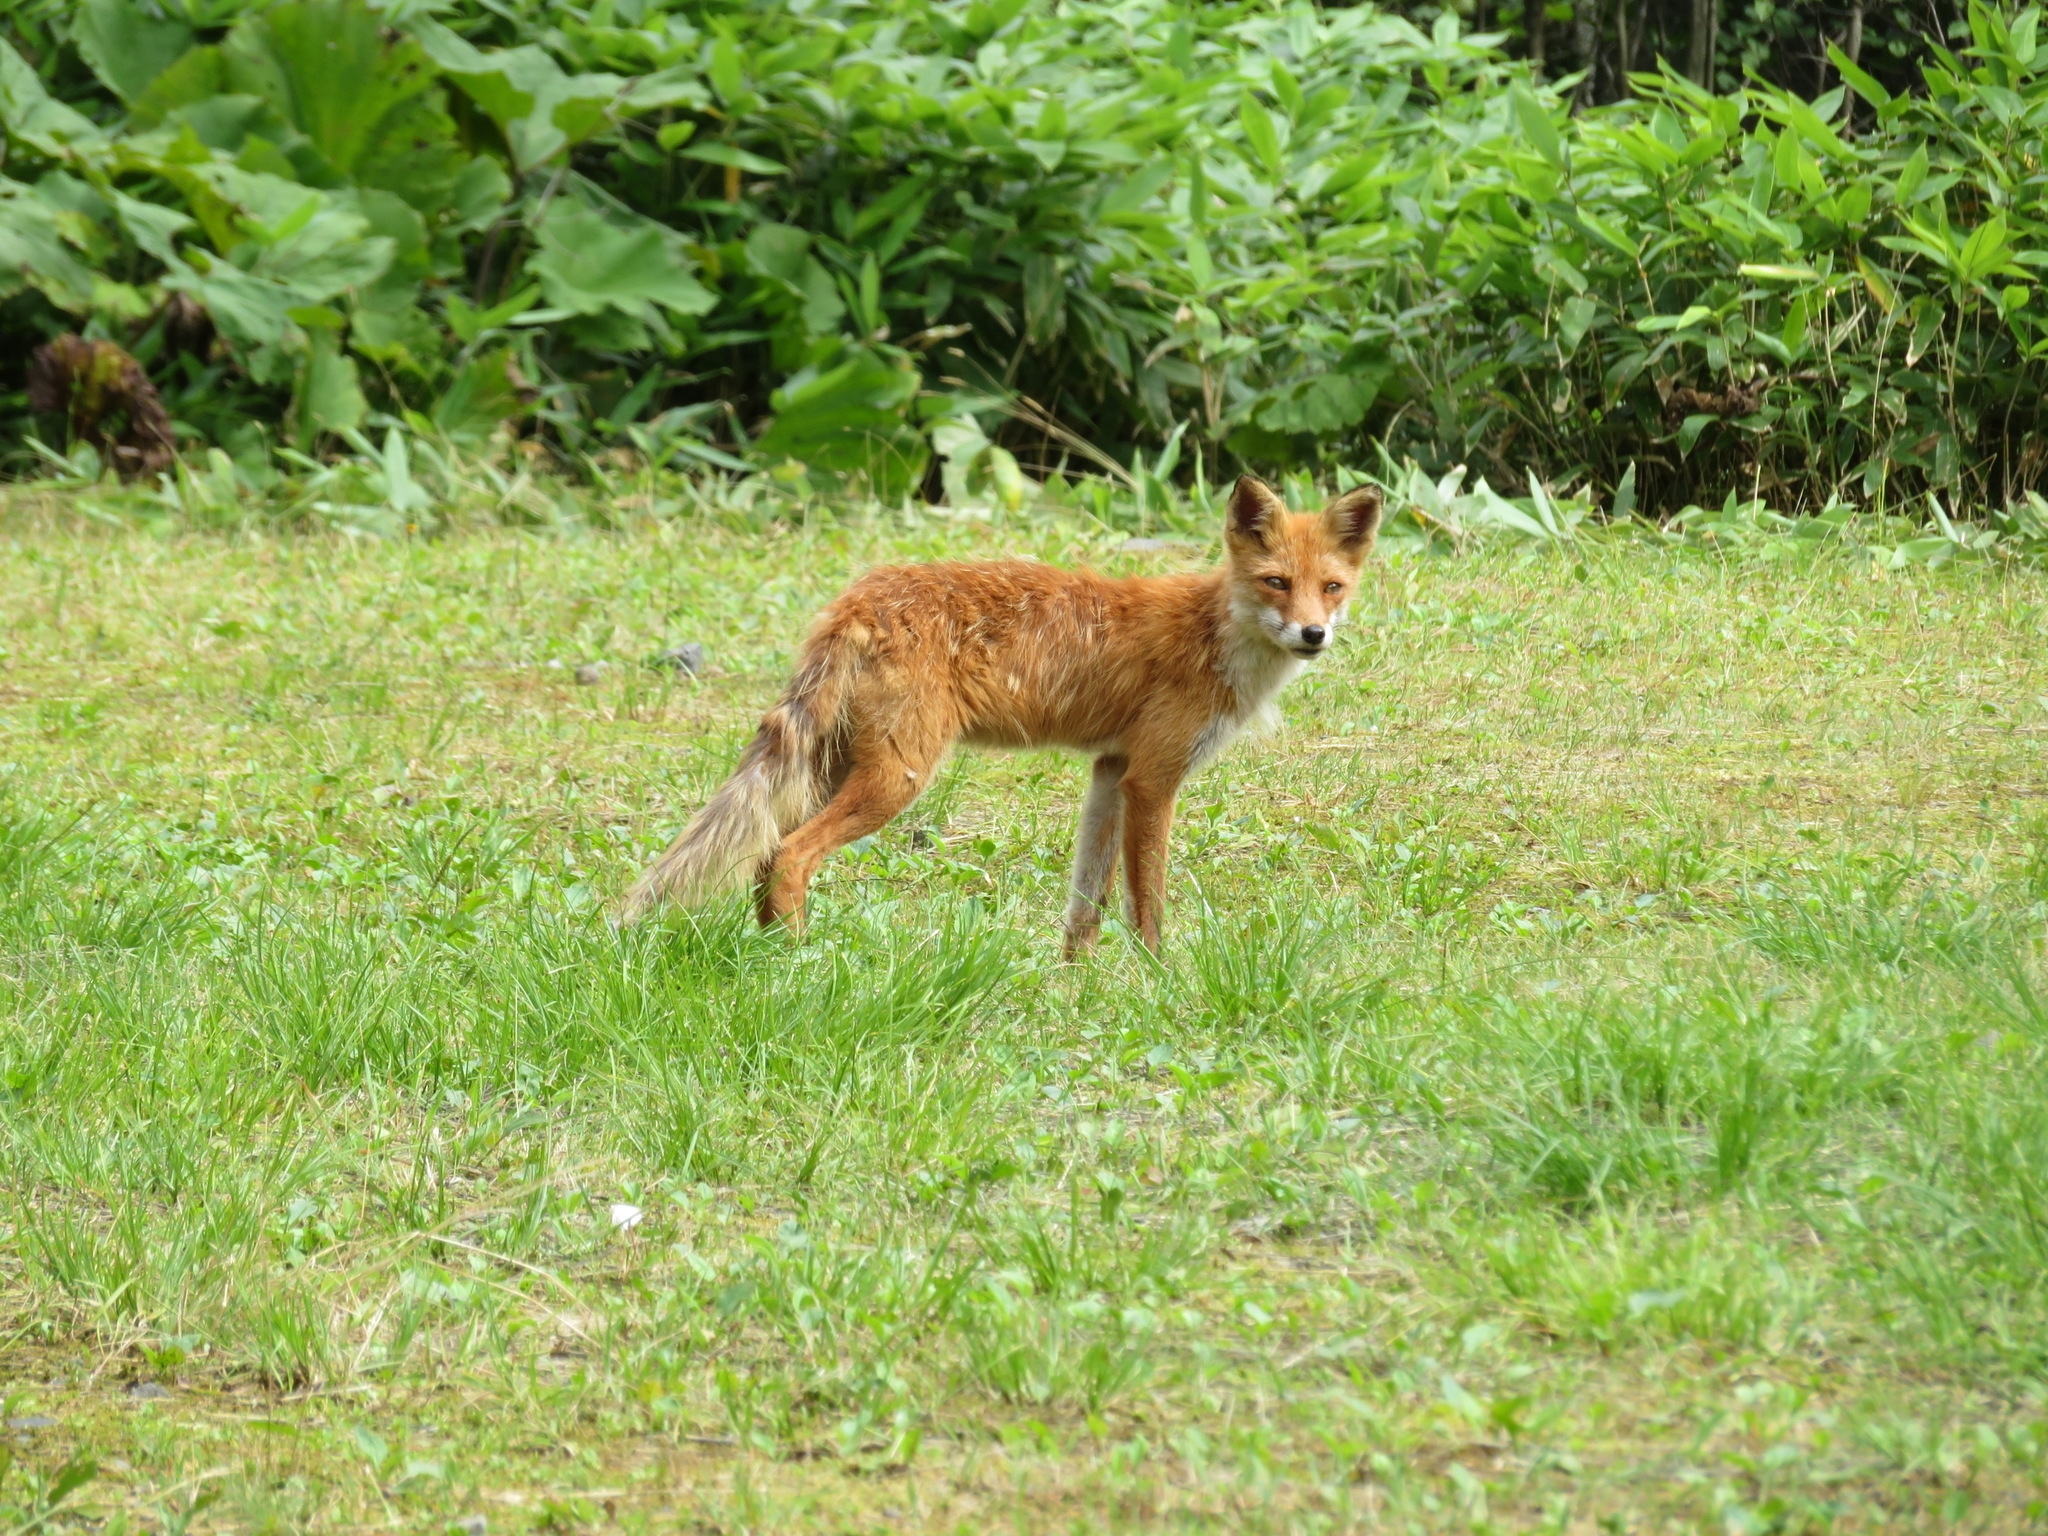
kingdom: Animalia
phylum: Chordata
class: Mammalia
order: Carnivora
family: Canidae
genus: Vulpes
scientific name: Vulpes vulpes
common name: Red fox
